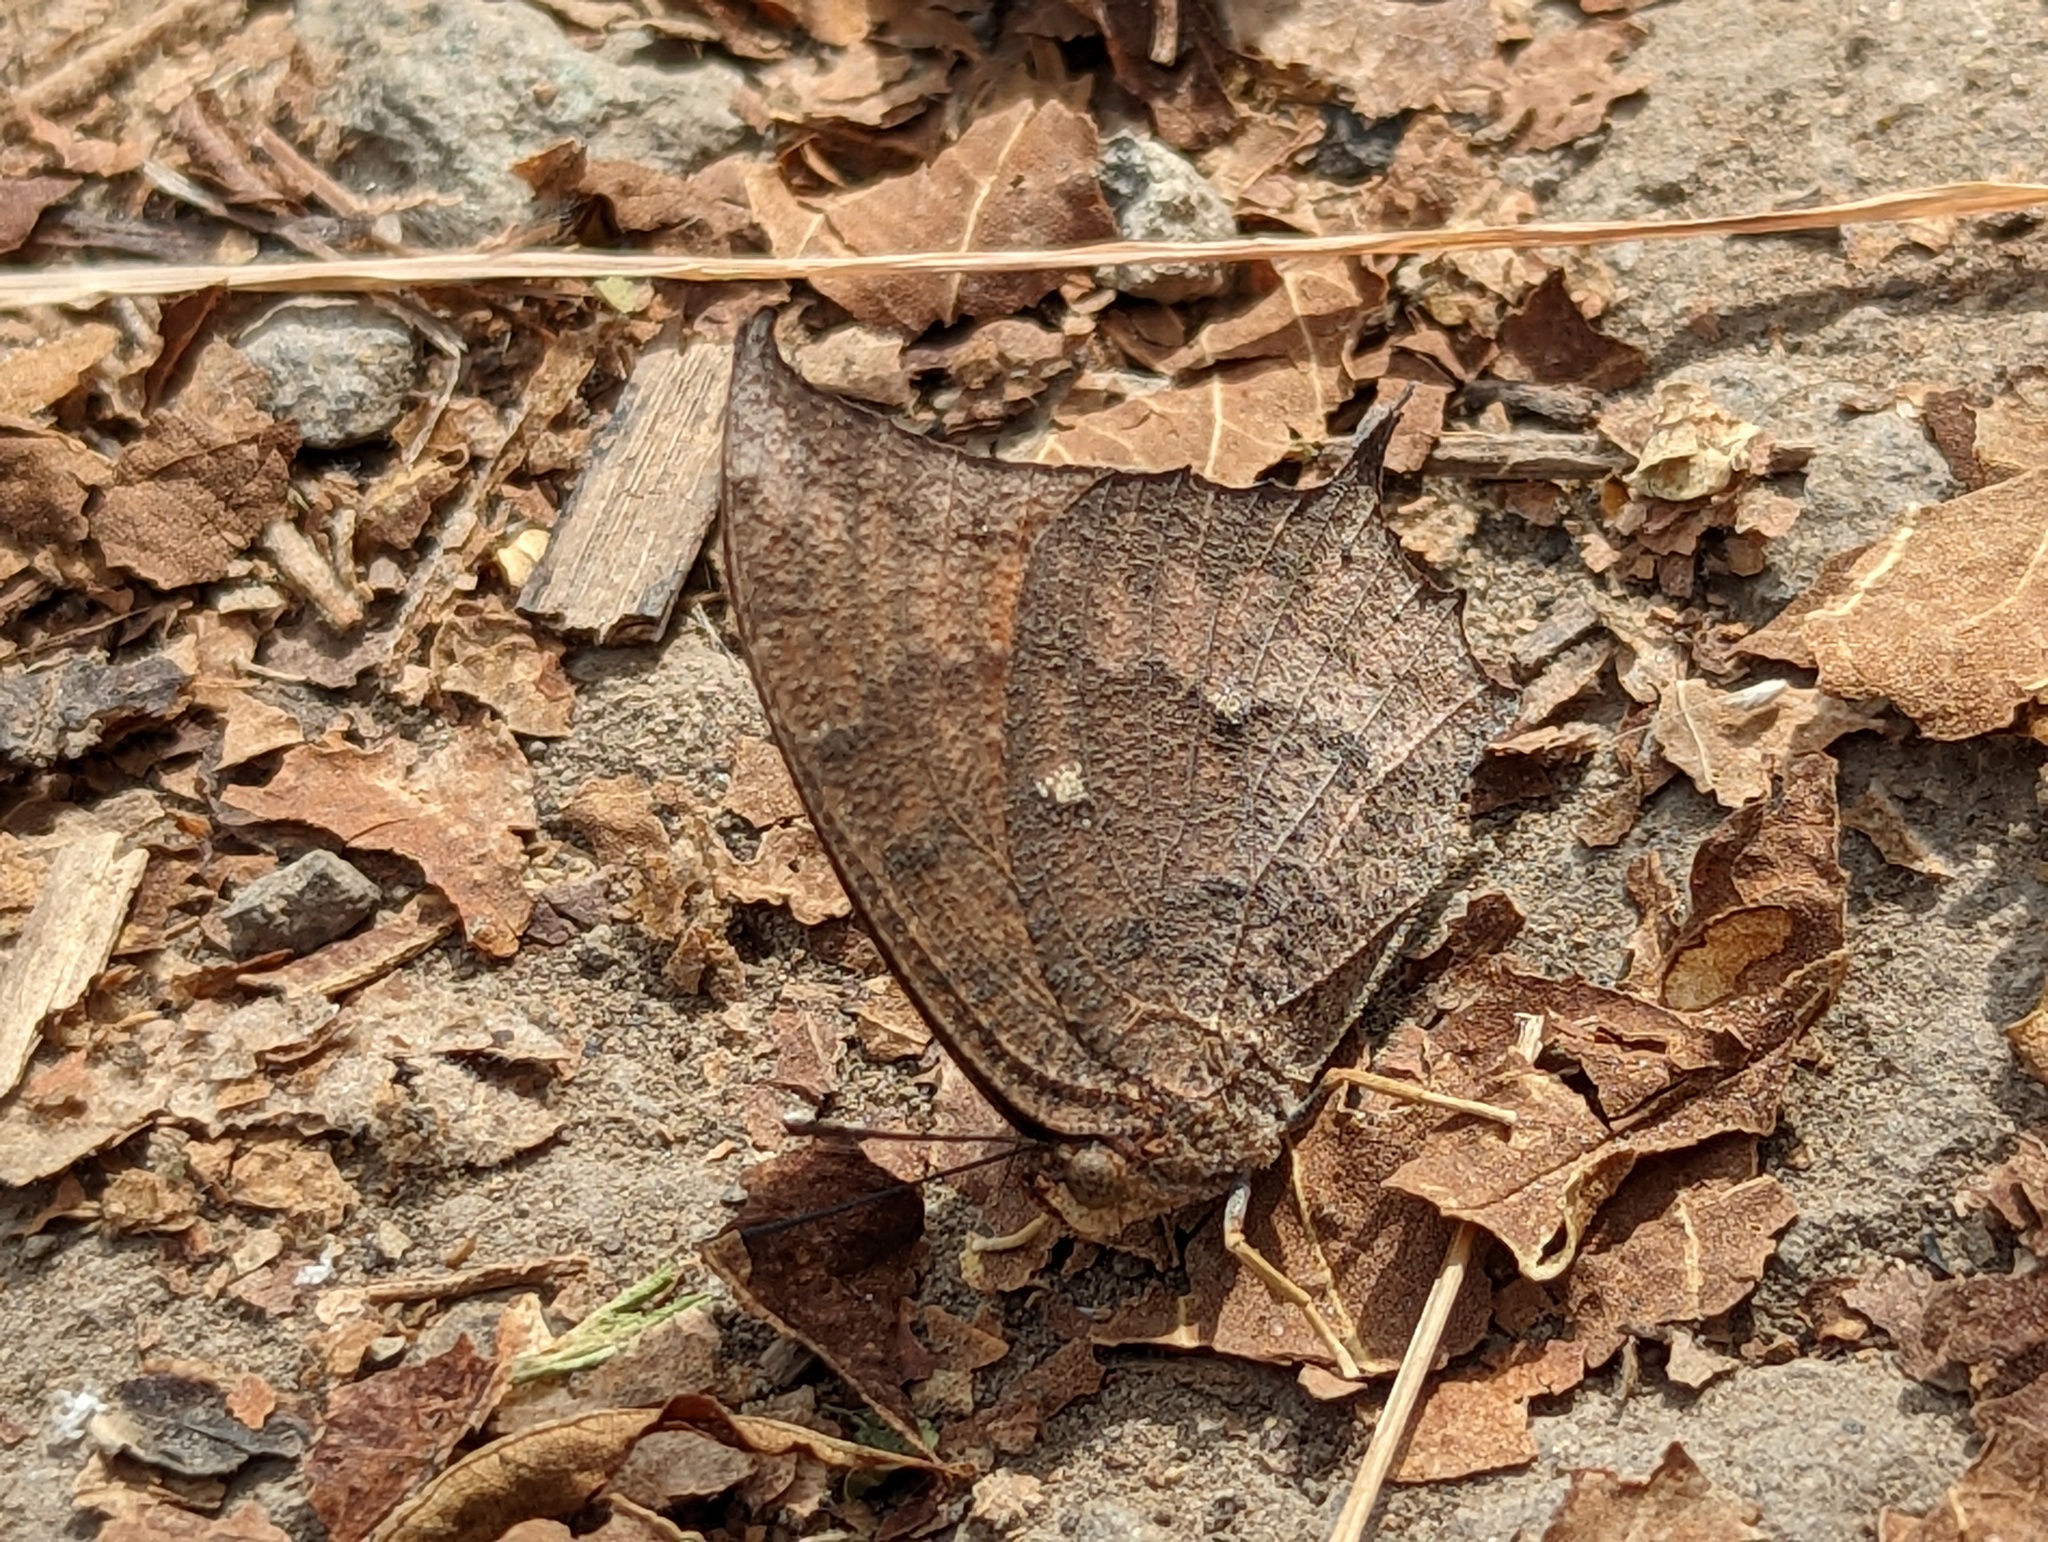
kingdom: Animalia
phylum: Arthropoda
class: Insecta
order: Lepidoptera
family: Nymphalidae
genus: Anaea
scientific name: Anaea aidea
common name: Tropical leafwing
